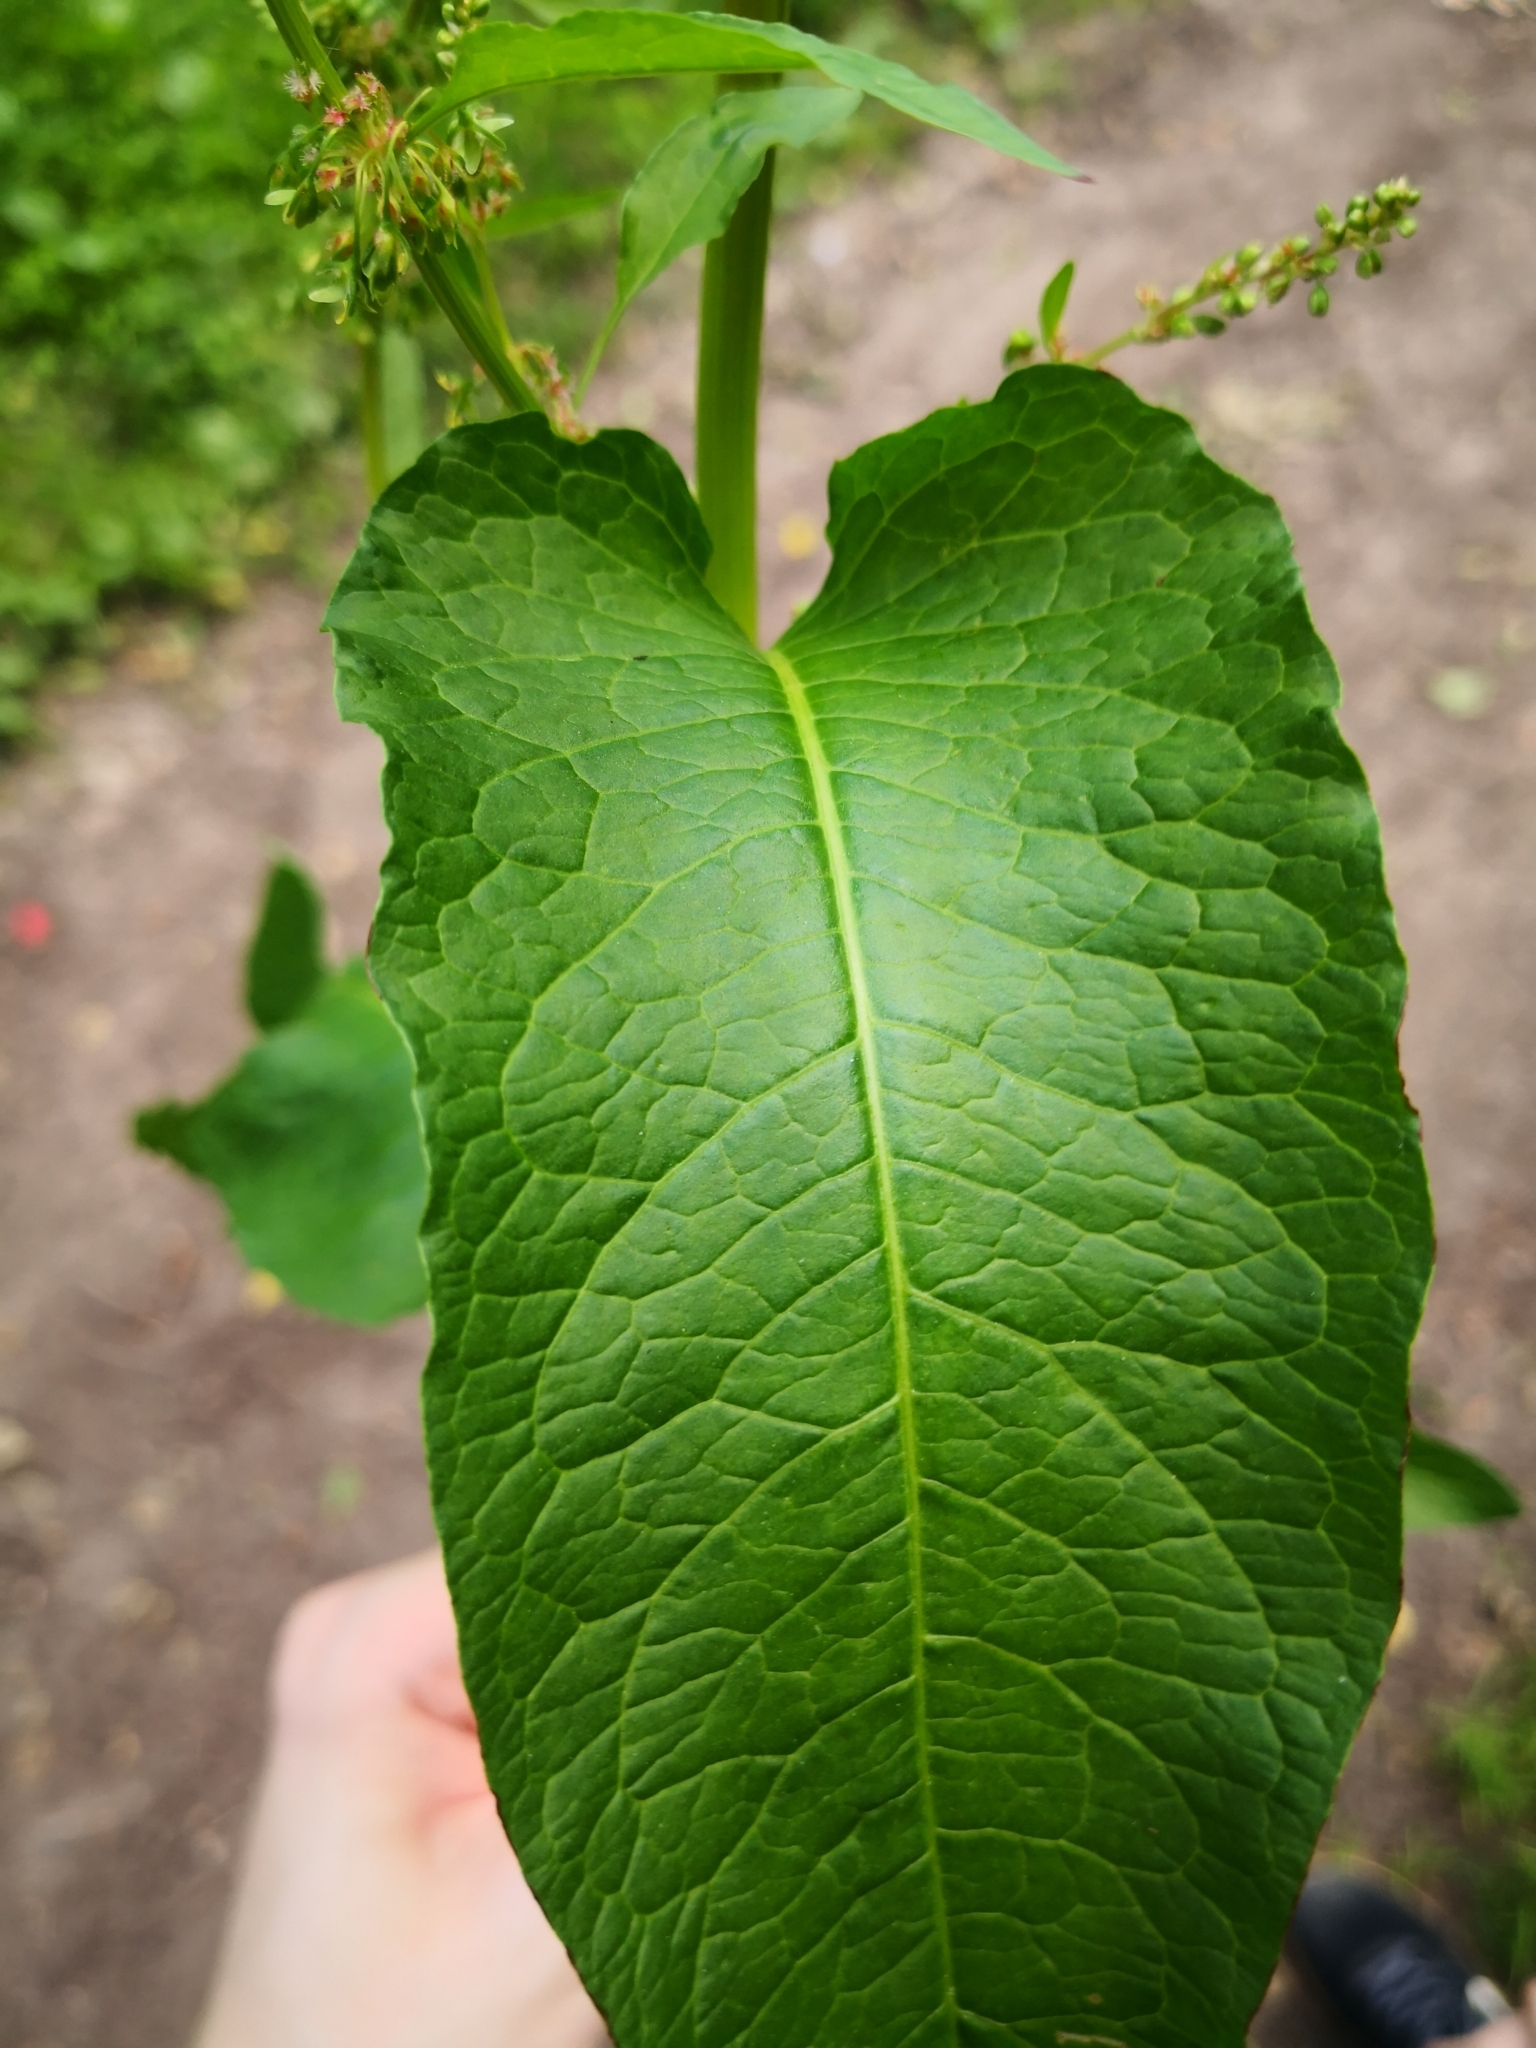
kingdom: Plantae
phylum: Tracheophyta
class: Magnoliopsida
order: Caryophyllales
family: Polygonaceae
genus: Rumex
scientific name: Rumex obtusifolius
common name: Bitter dock
